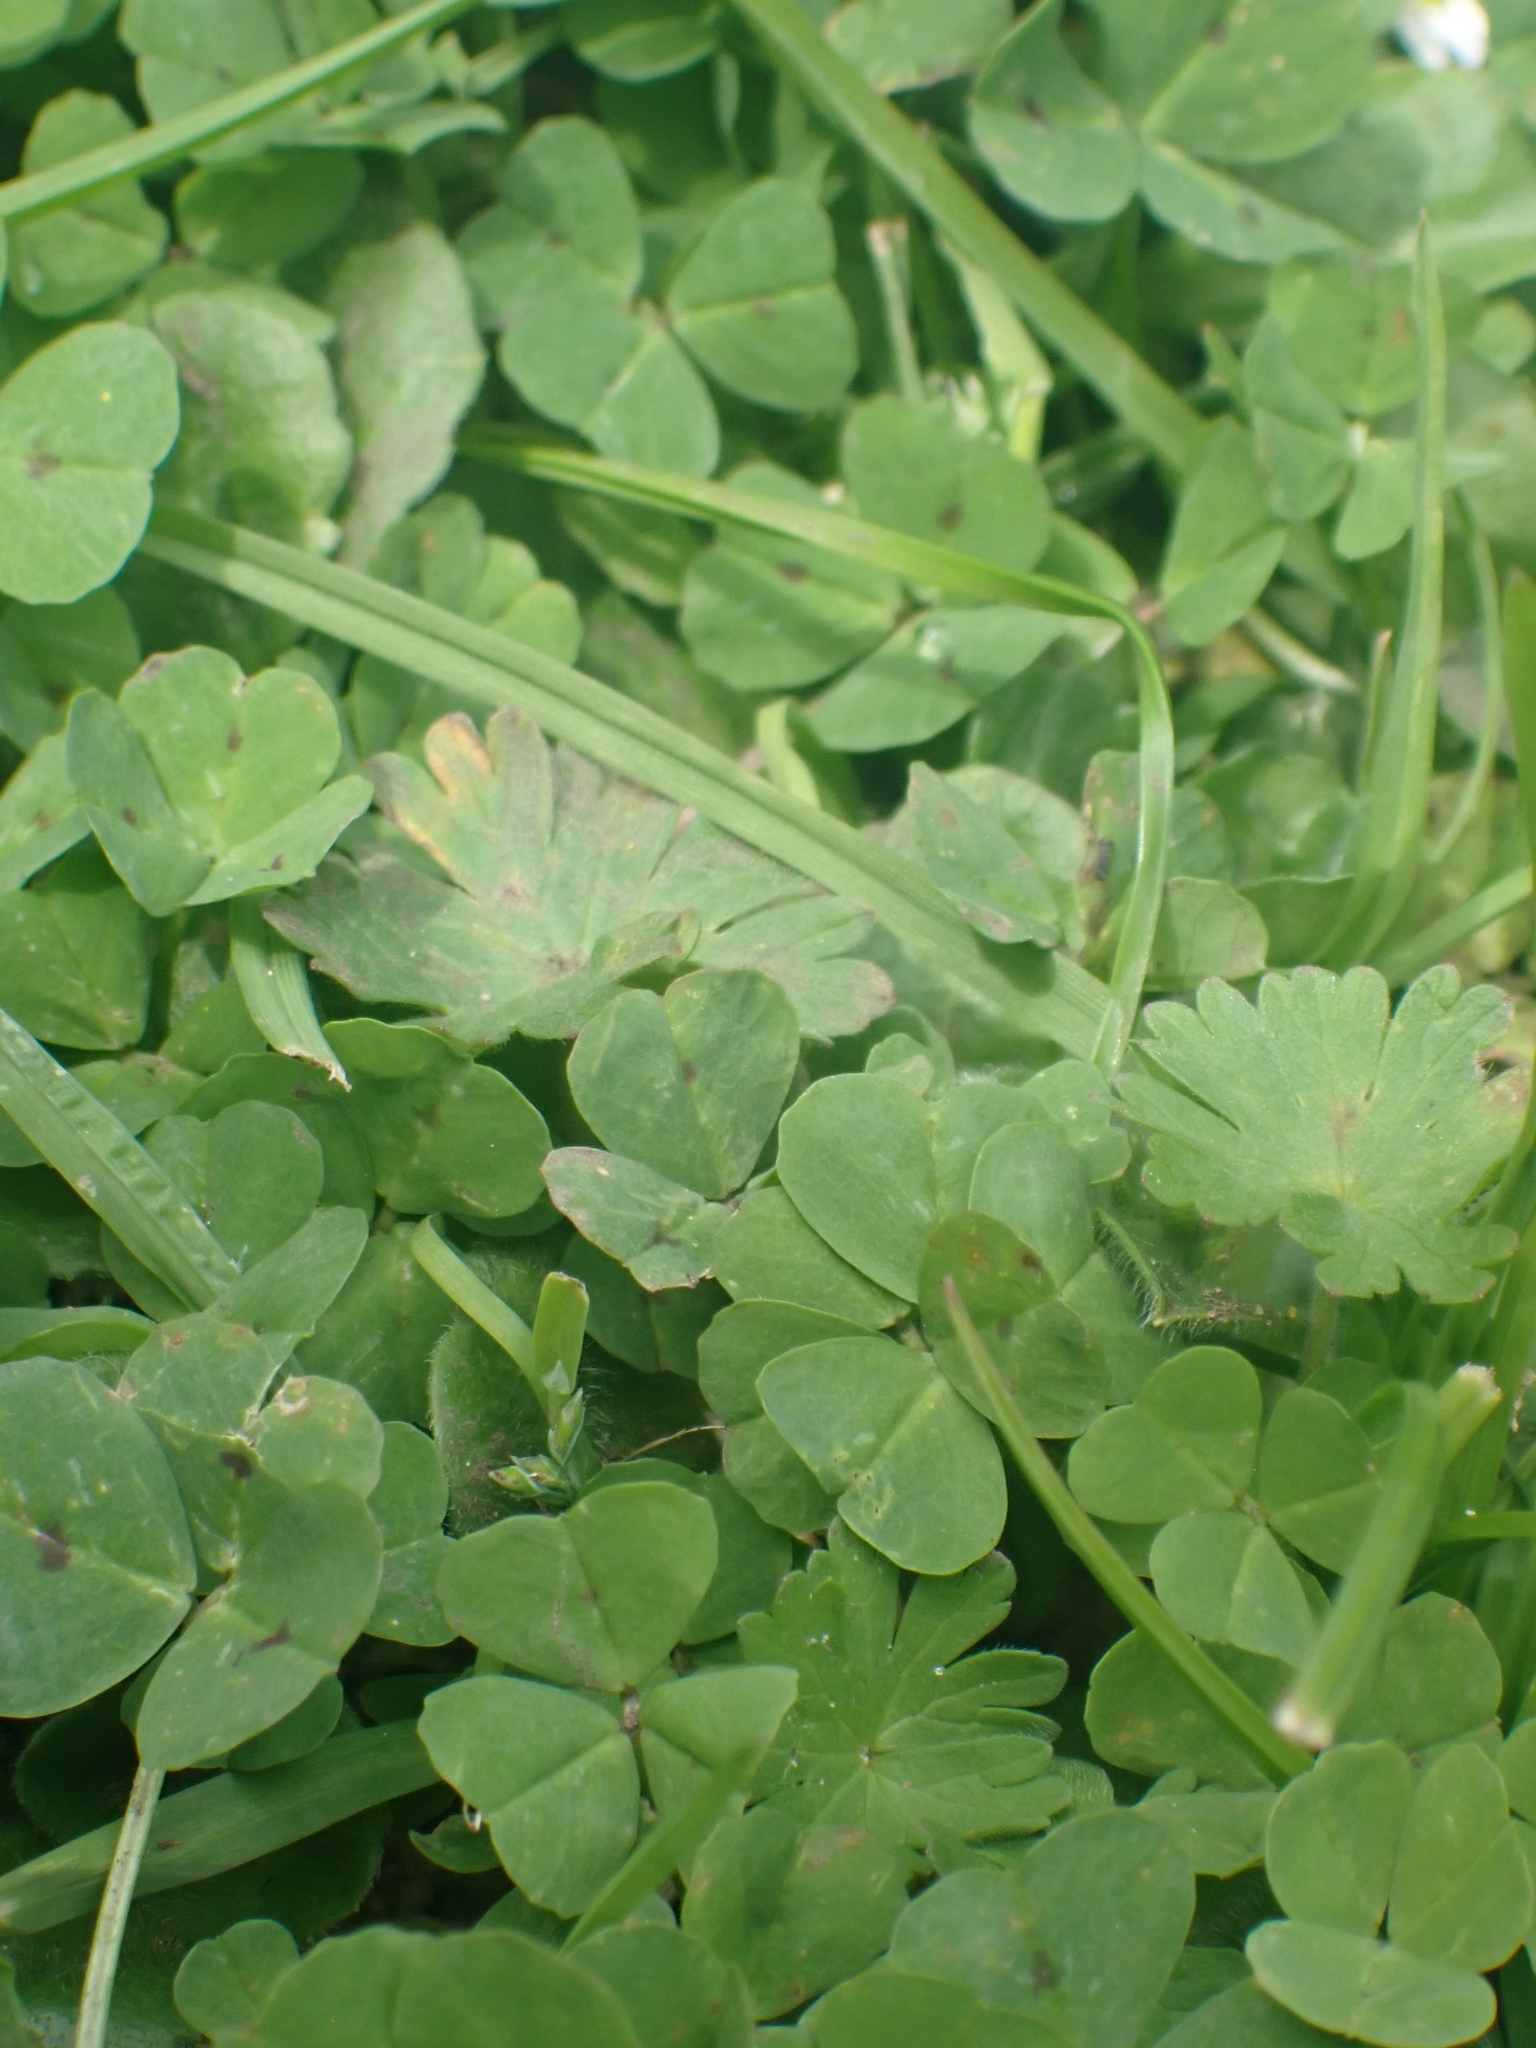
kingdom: Plantae
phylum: Tracheophyta
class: Magnoliopsida
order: Fabales
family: Fabaceae
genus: Medicago
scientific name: Medicago arabica
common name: Spotted medick
